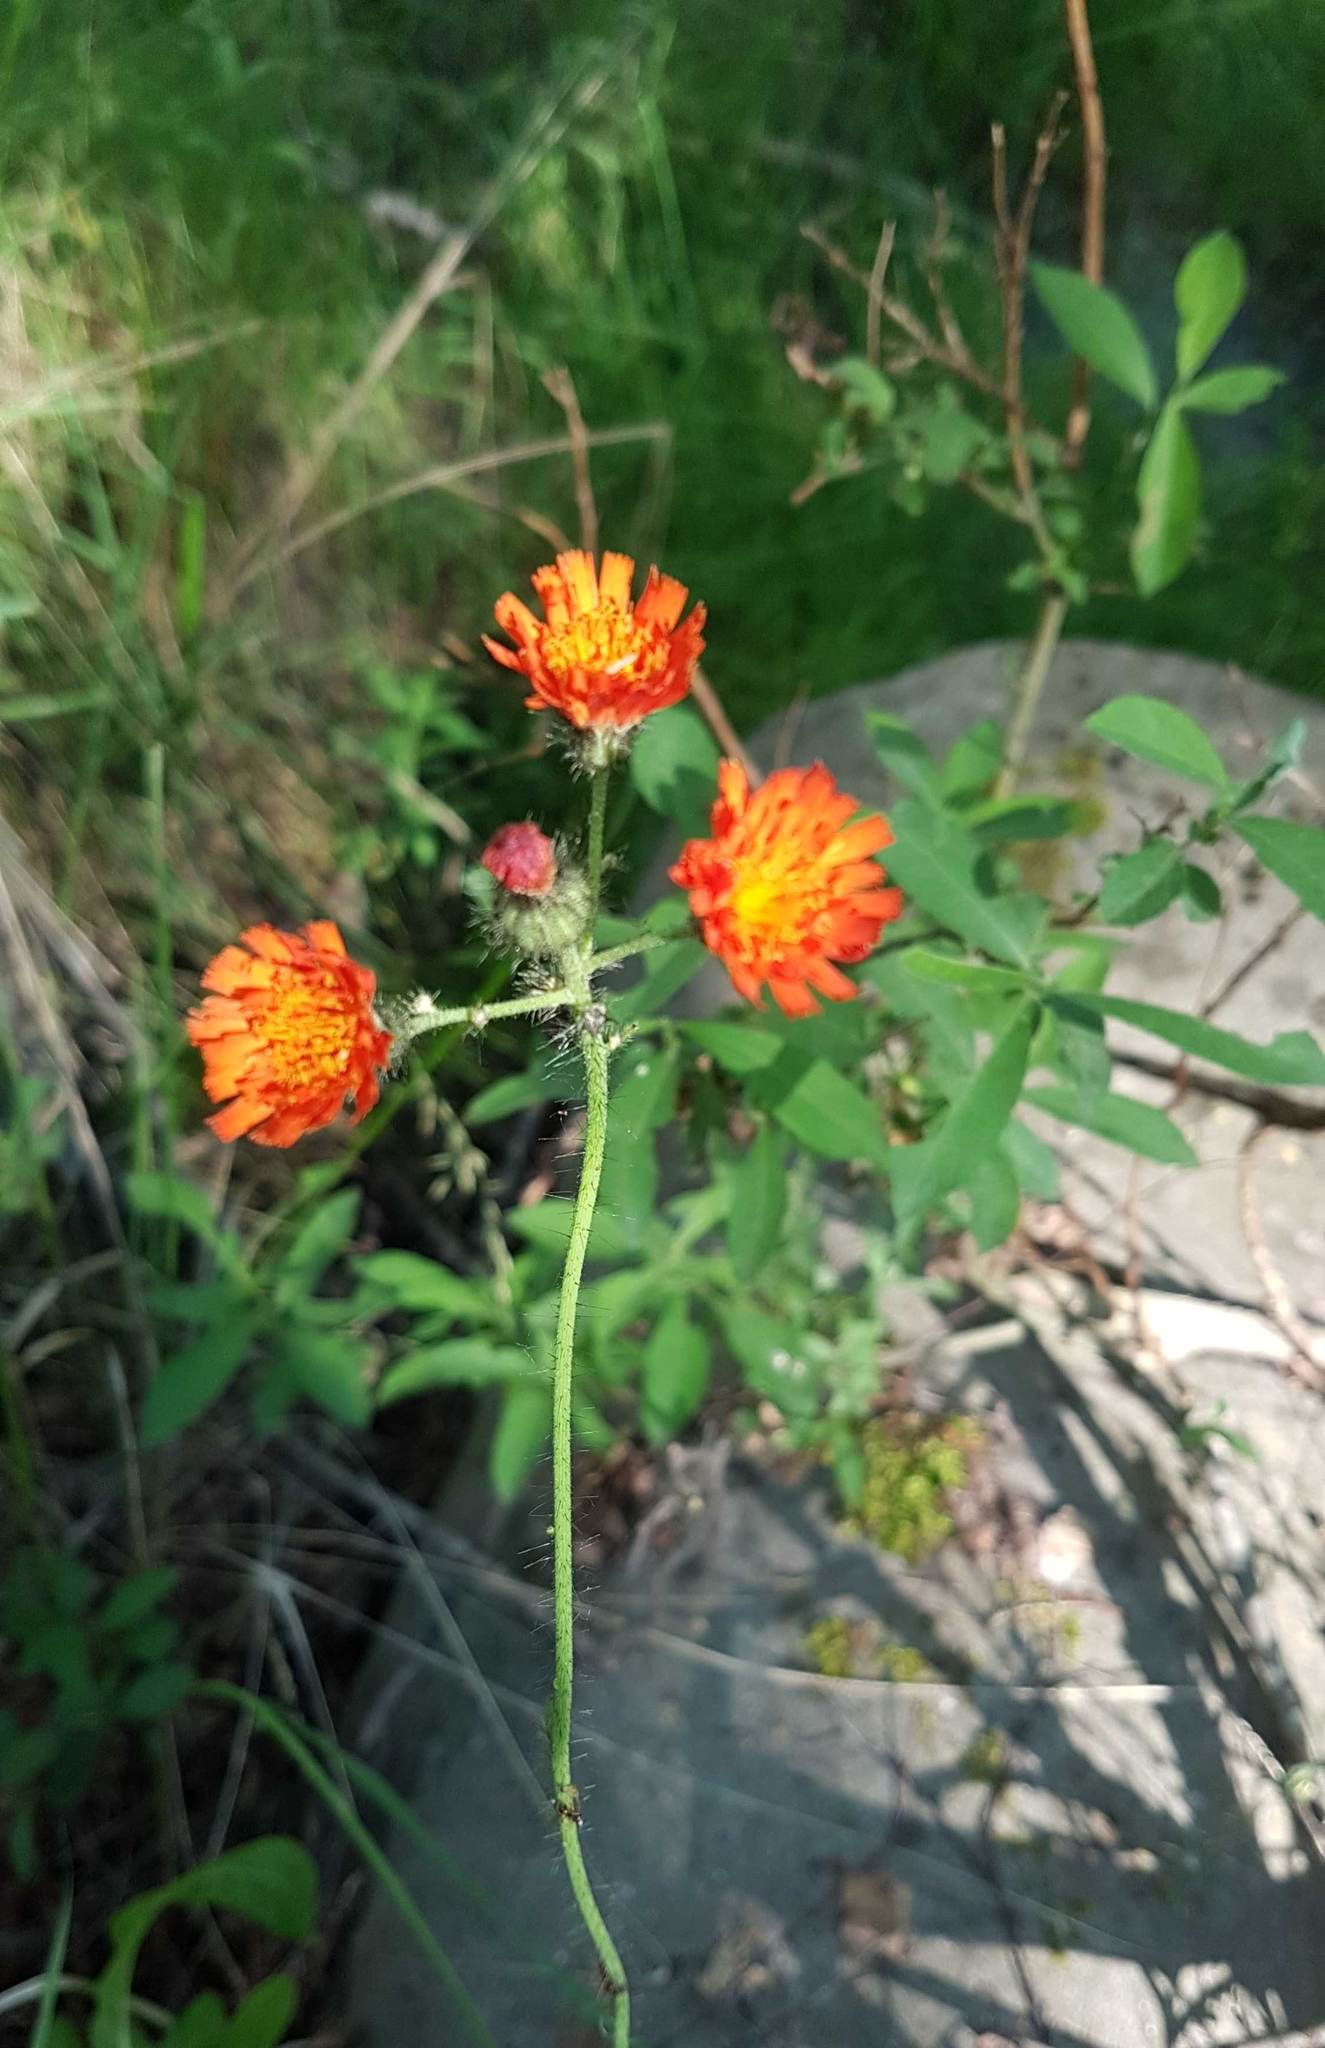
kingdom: Plantae
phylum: Tracheophyta
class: Magnoliopsida
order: Asterales
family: Asteraceae
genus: Pilosella
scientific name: Pilosella aurantiaca
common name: Fox-and-cubs
